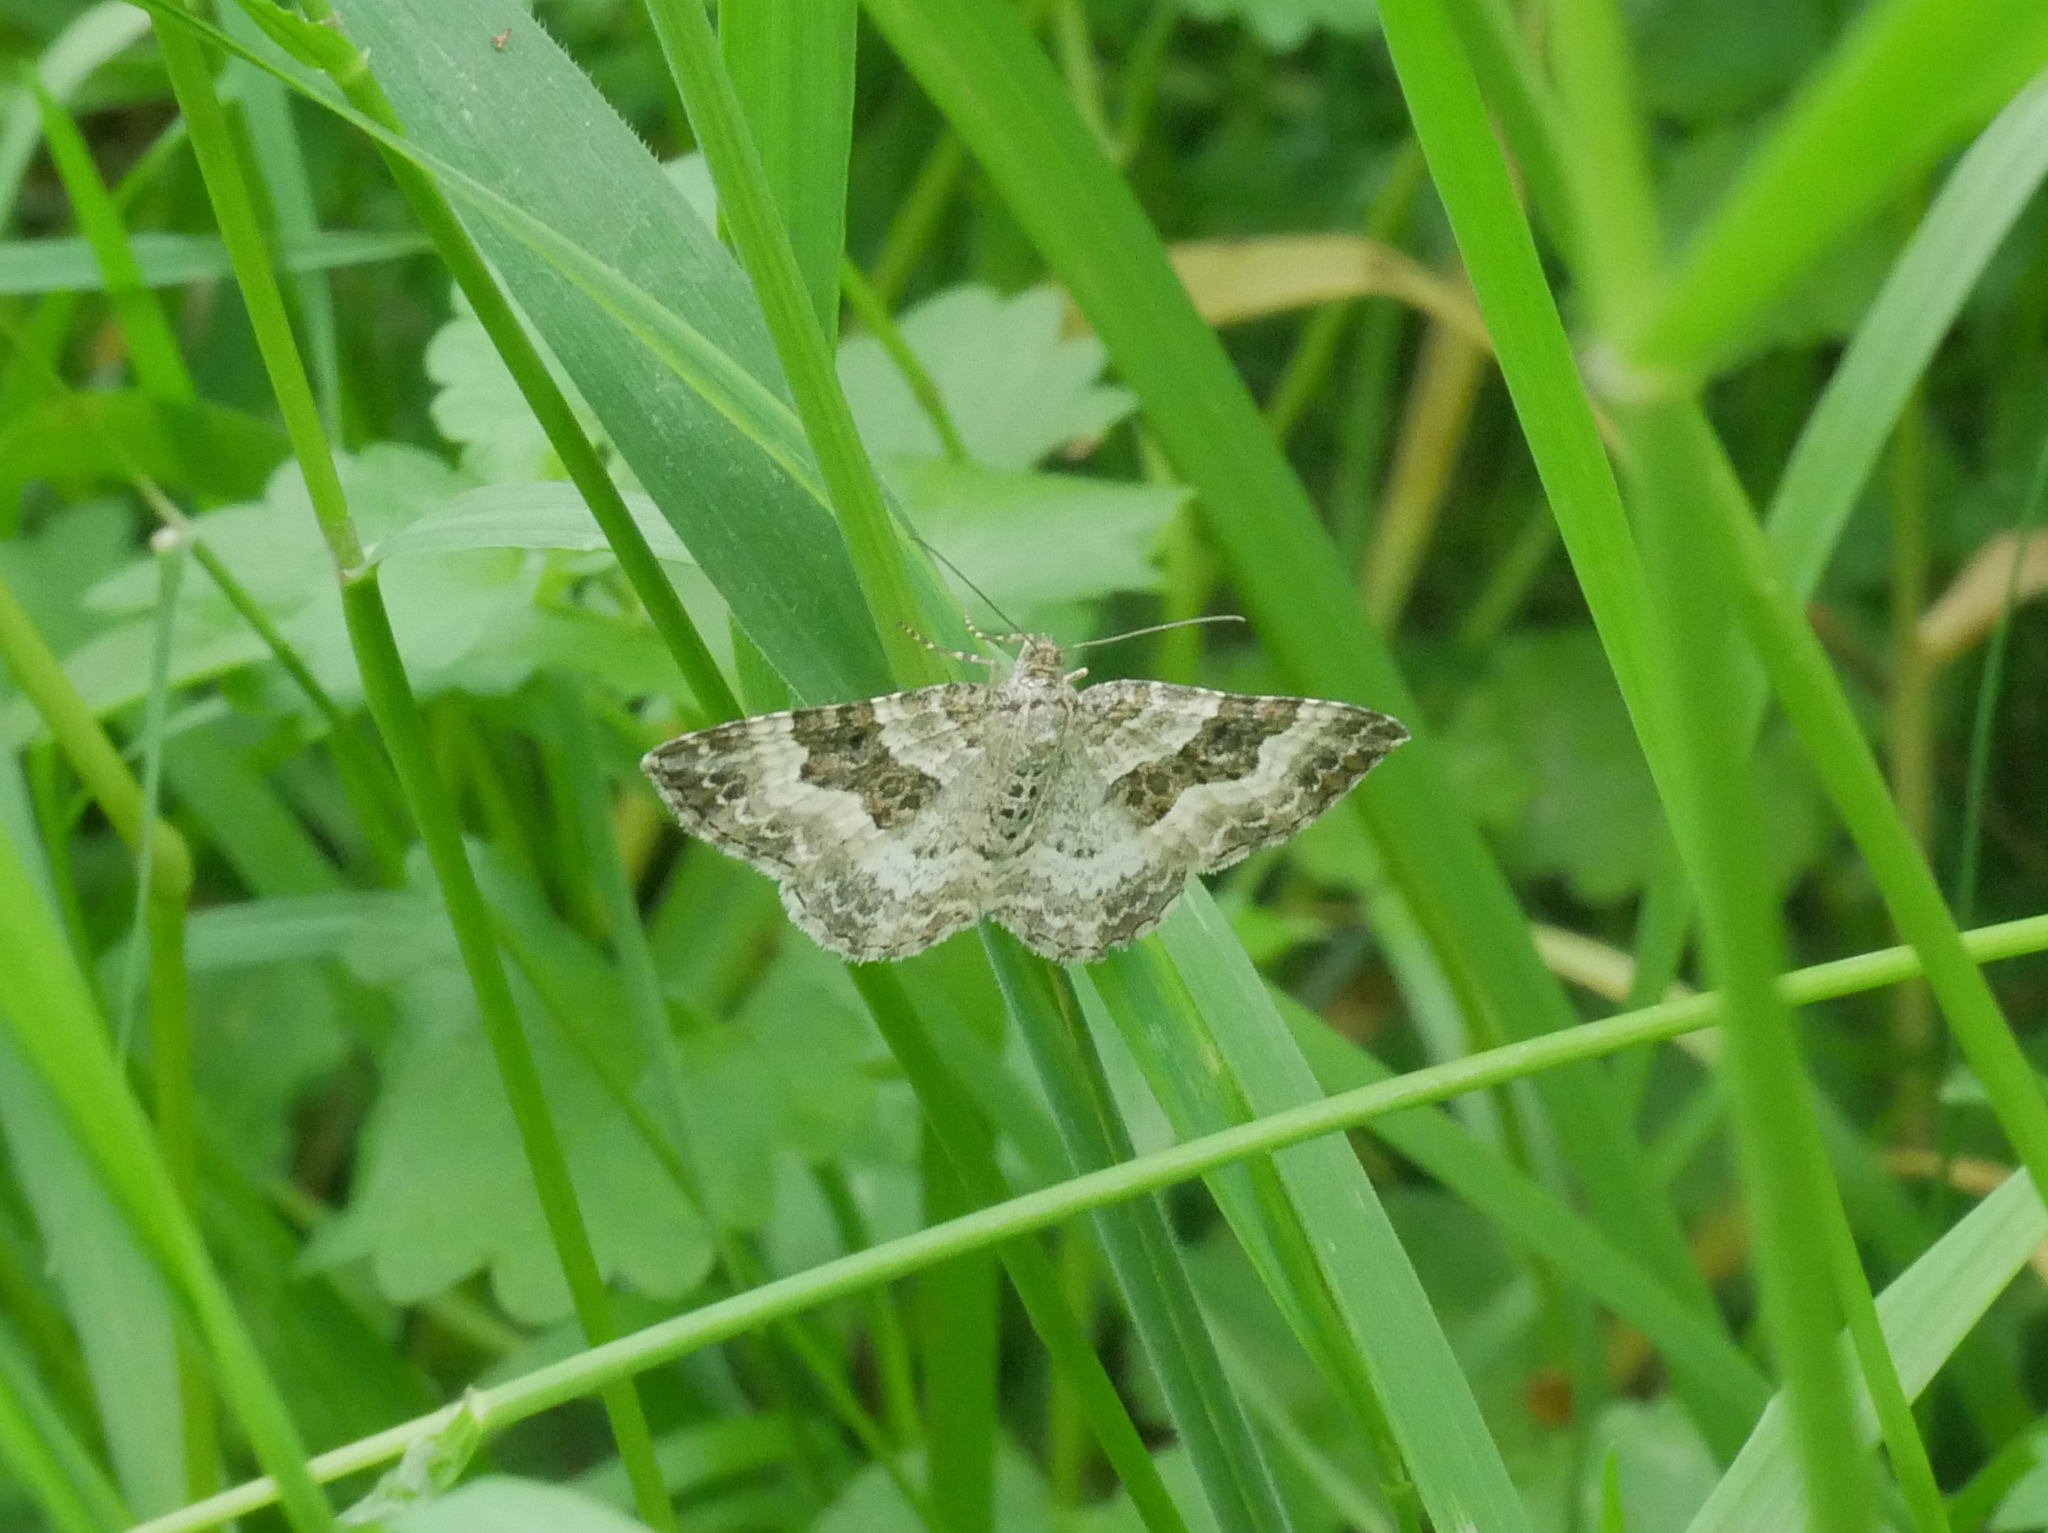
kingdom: Animalia
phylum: Arthropoda
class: Insecta
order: Lepidoptera
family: Geometridae
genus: Epirrhoe
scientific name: Epirrhoe alternata
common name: Common carpet
